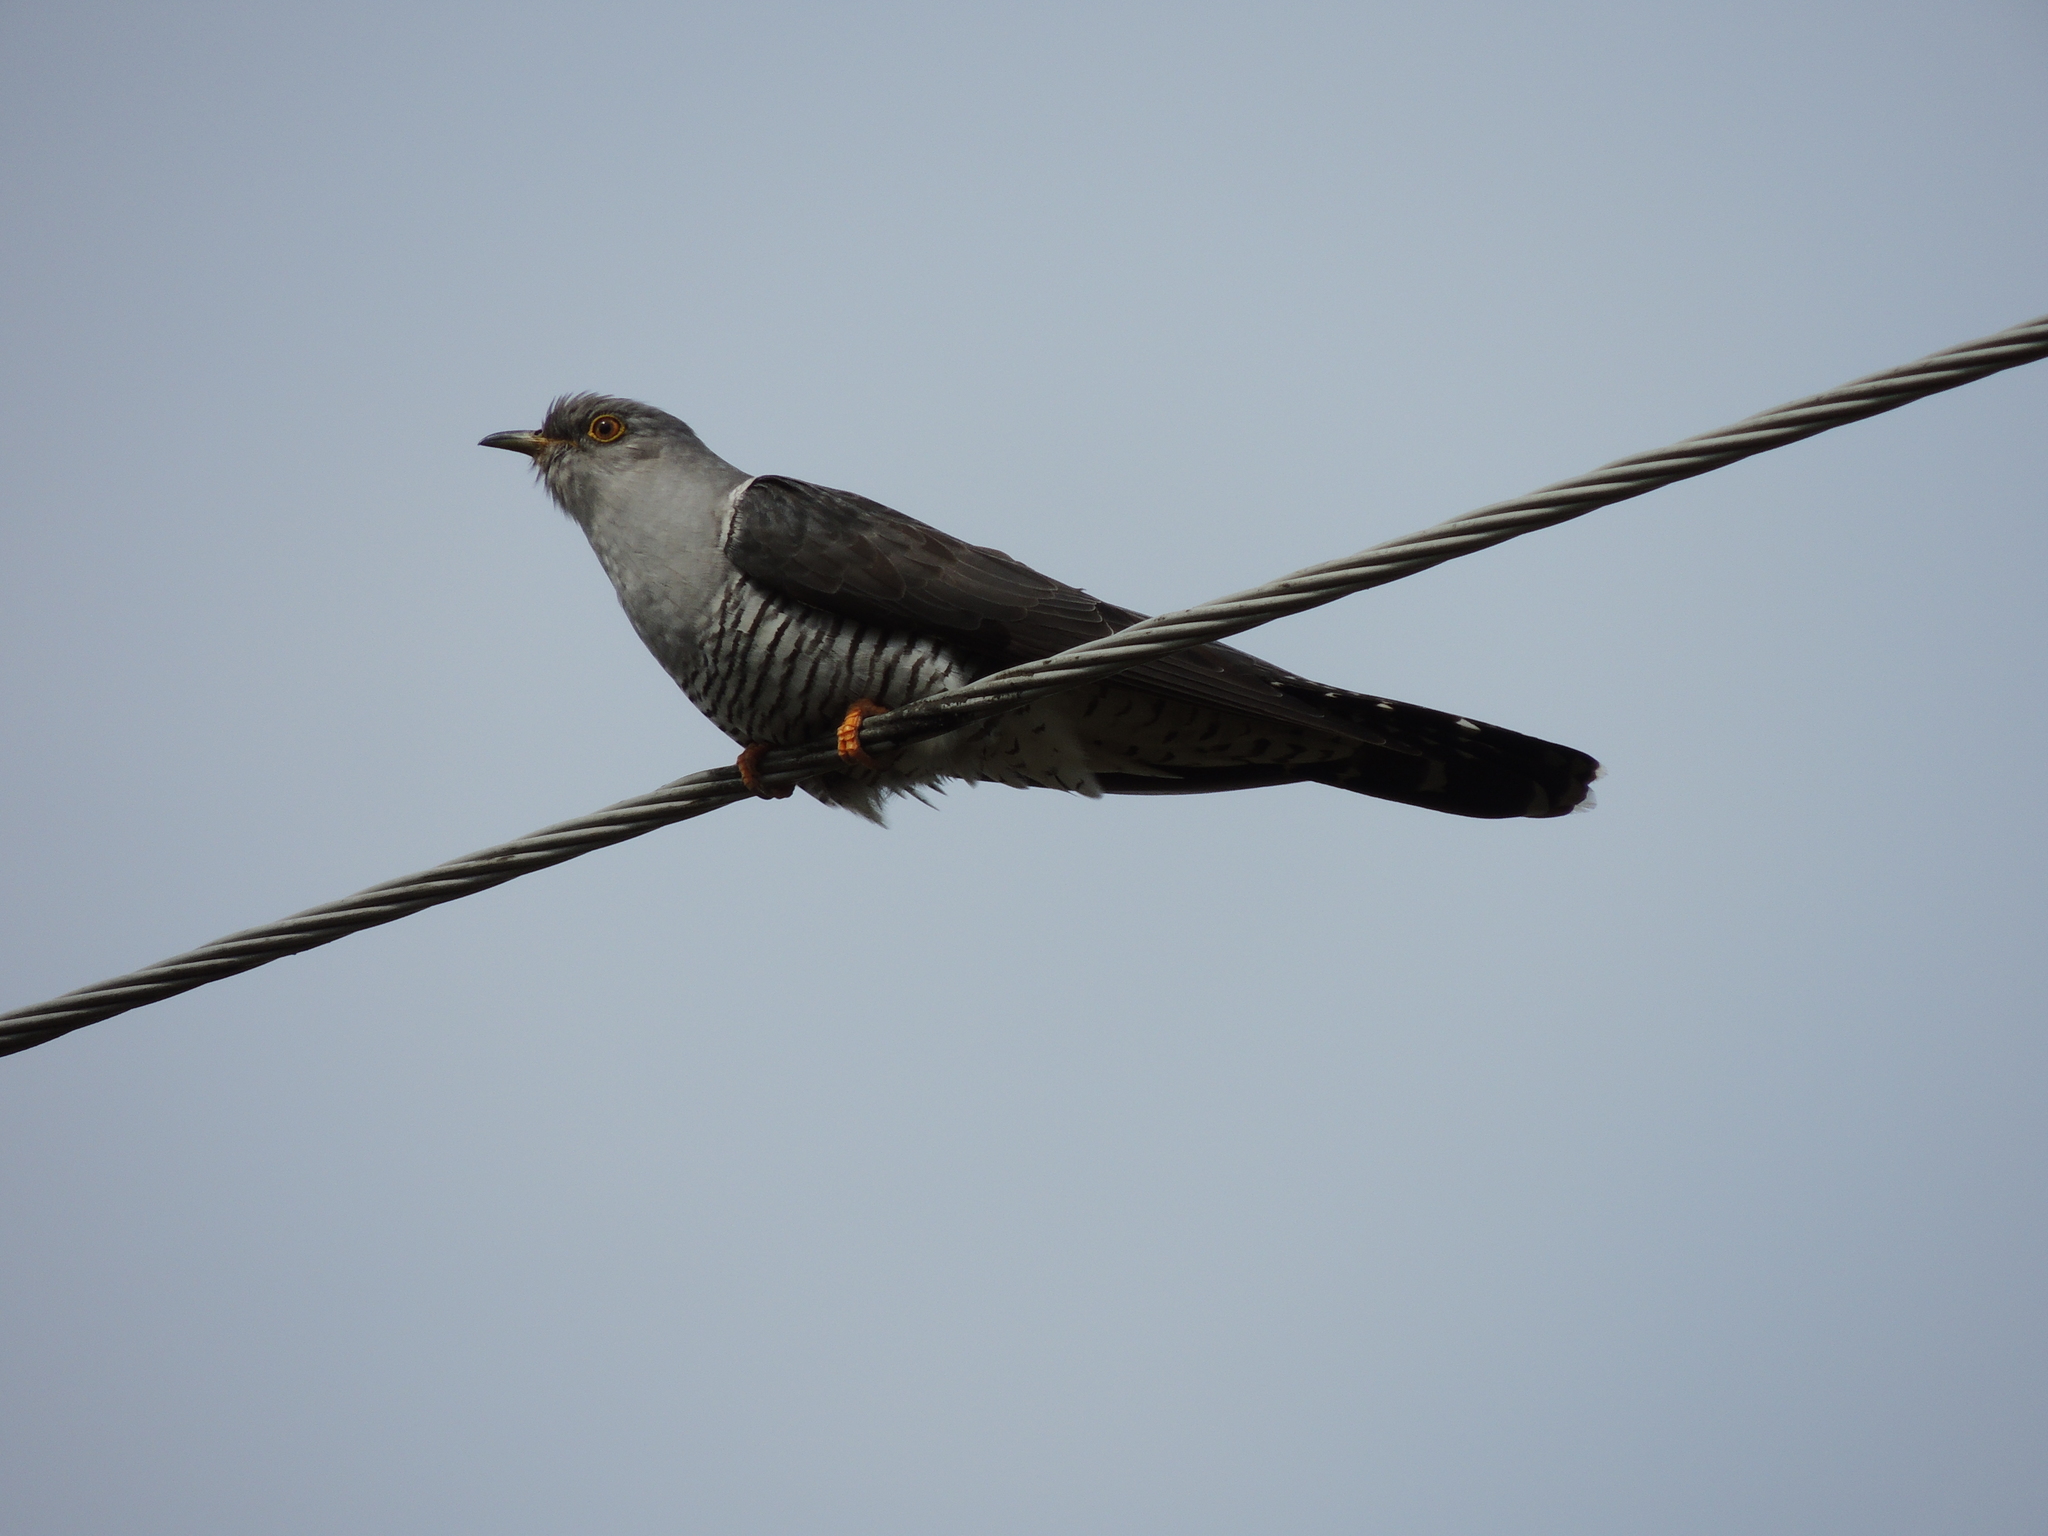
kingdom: Animalia
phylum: Chordata
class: Aves
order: Cuculiformes
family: Cuculidae
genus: Cuculus
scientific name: Cuculus canorus
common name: Common cuckoo
